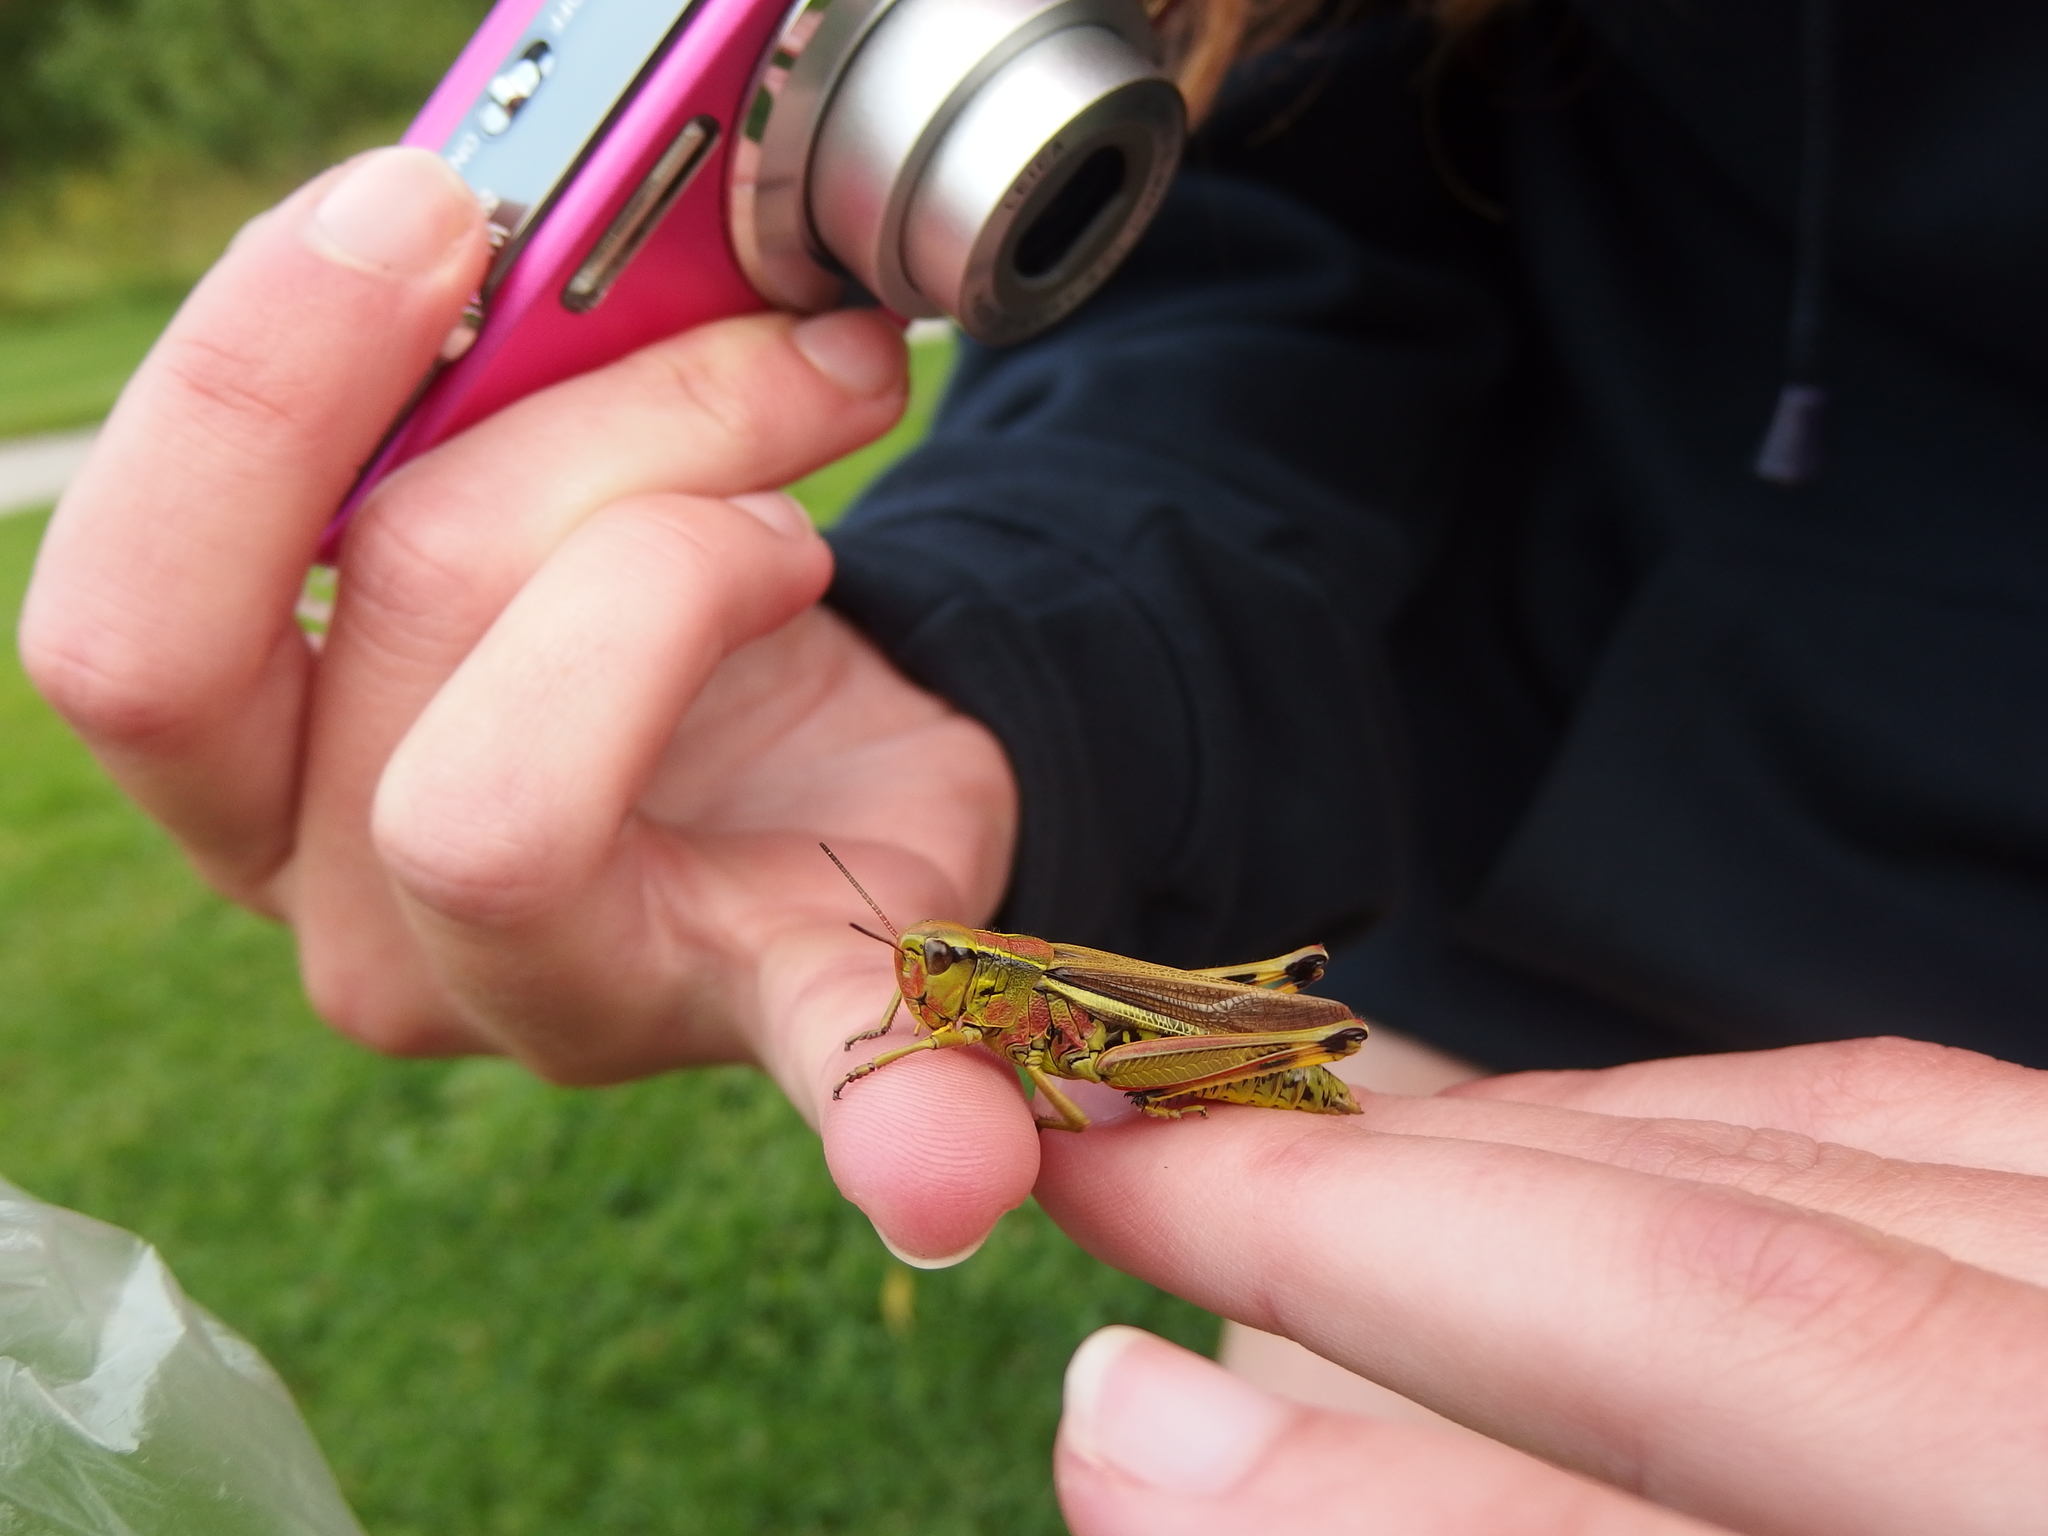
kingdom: Animalia
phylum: Arthropoda
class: Insecta
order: Orthoptera
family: Acrididae
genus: Stethophyma
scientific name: Stethophyma grossum
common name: Large marsh grasshopper
